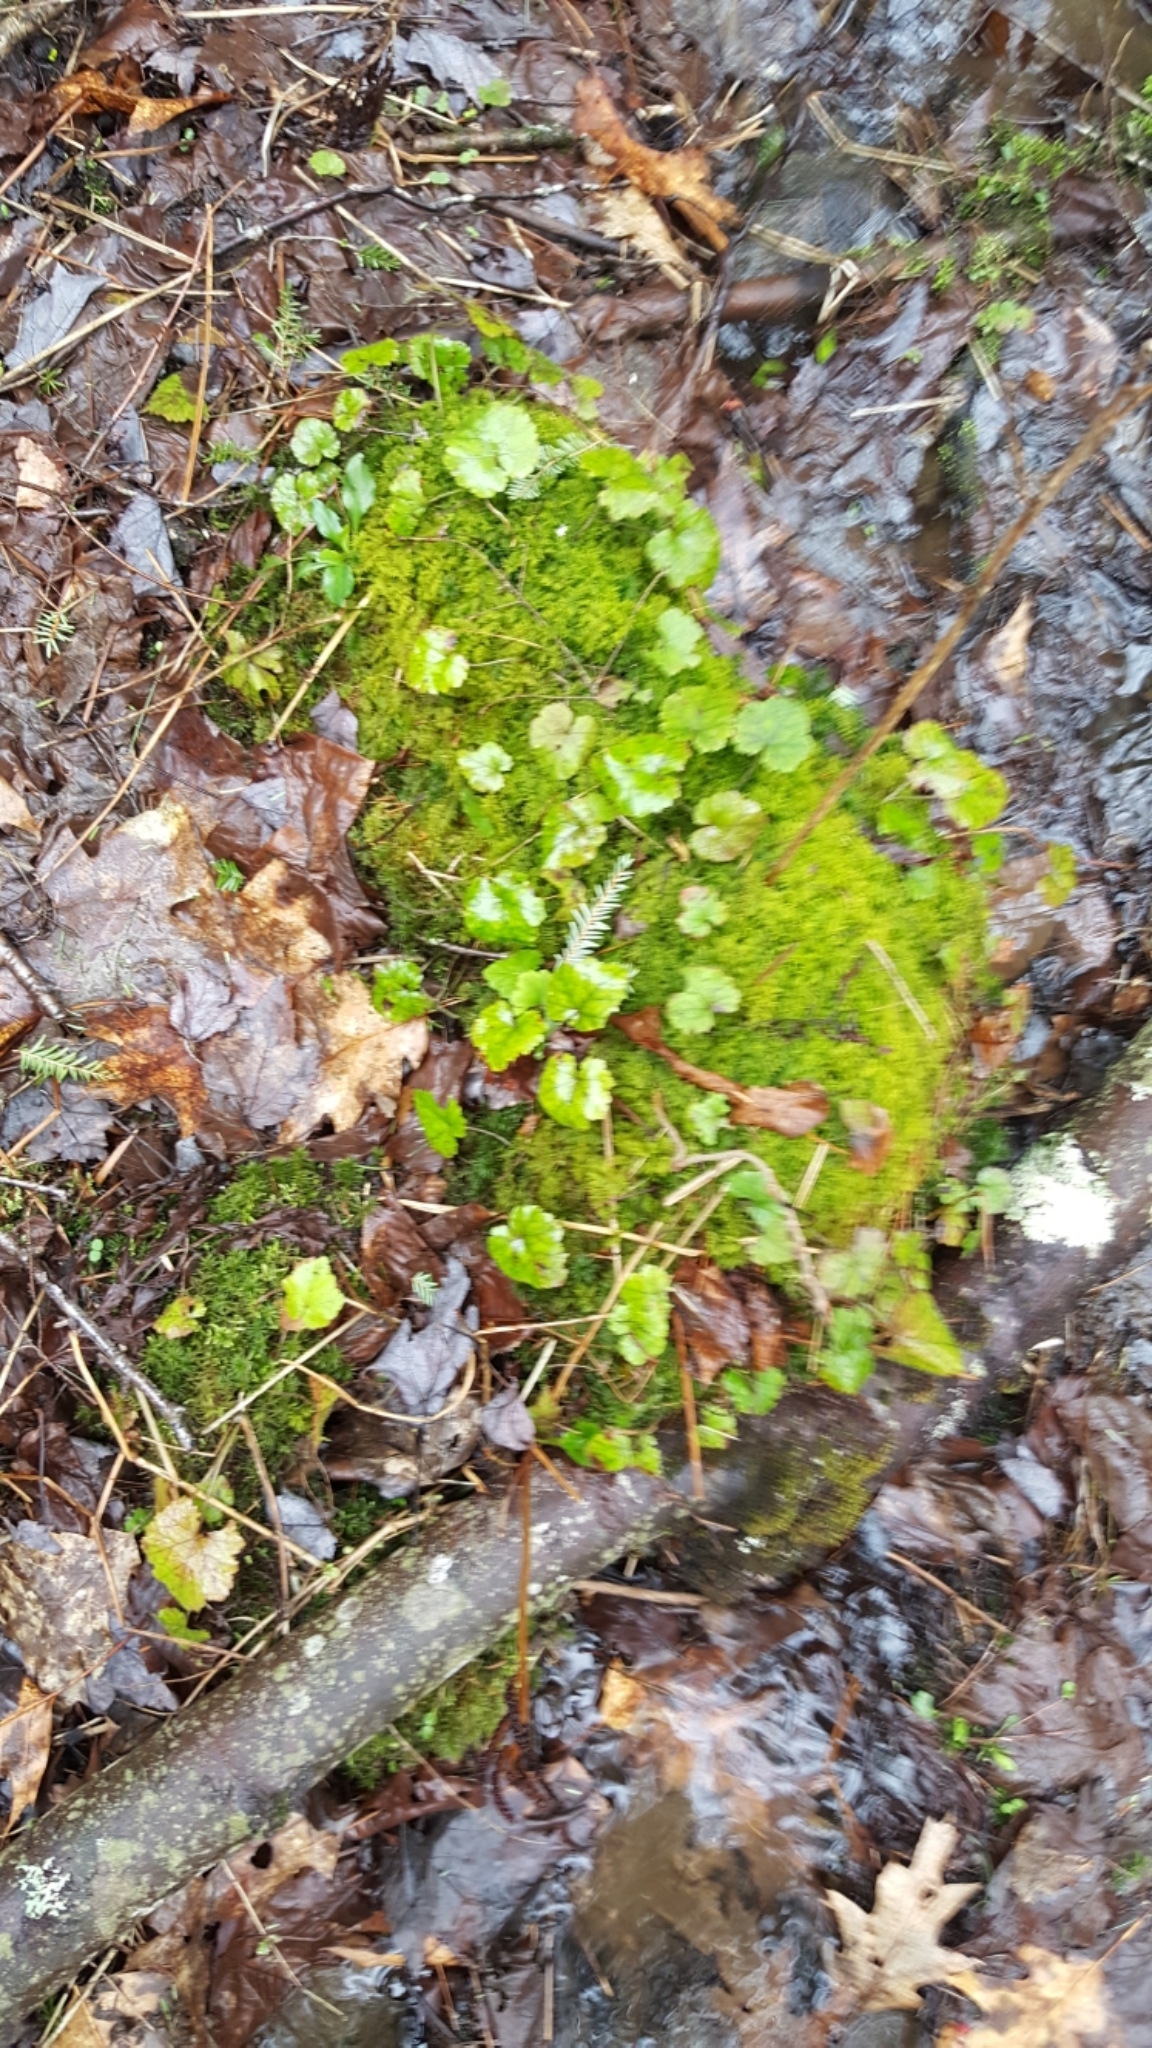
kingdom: Plantae
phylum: Tracheophyta
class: Magnoliopsida
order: Saxifragales
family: Saxifragaceae
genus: Tiarella
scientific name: Tiarella stolonifera
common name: Stoloniferous foamflower
